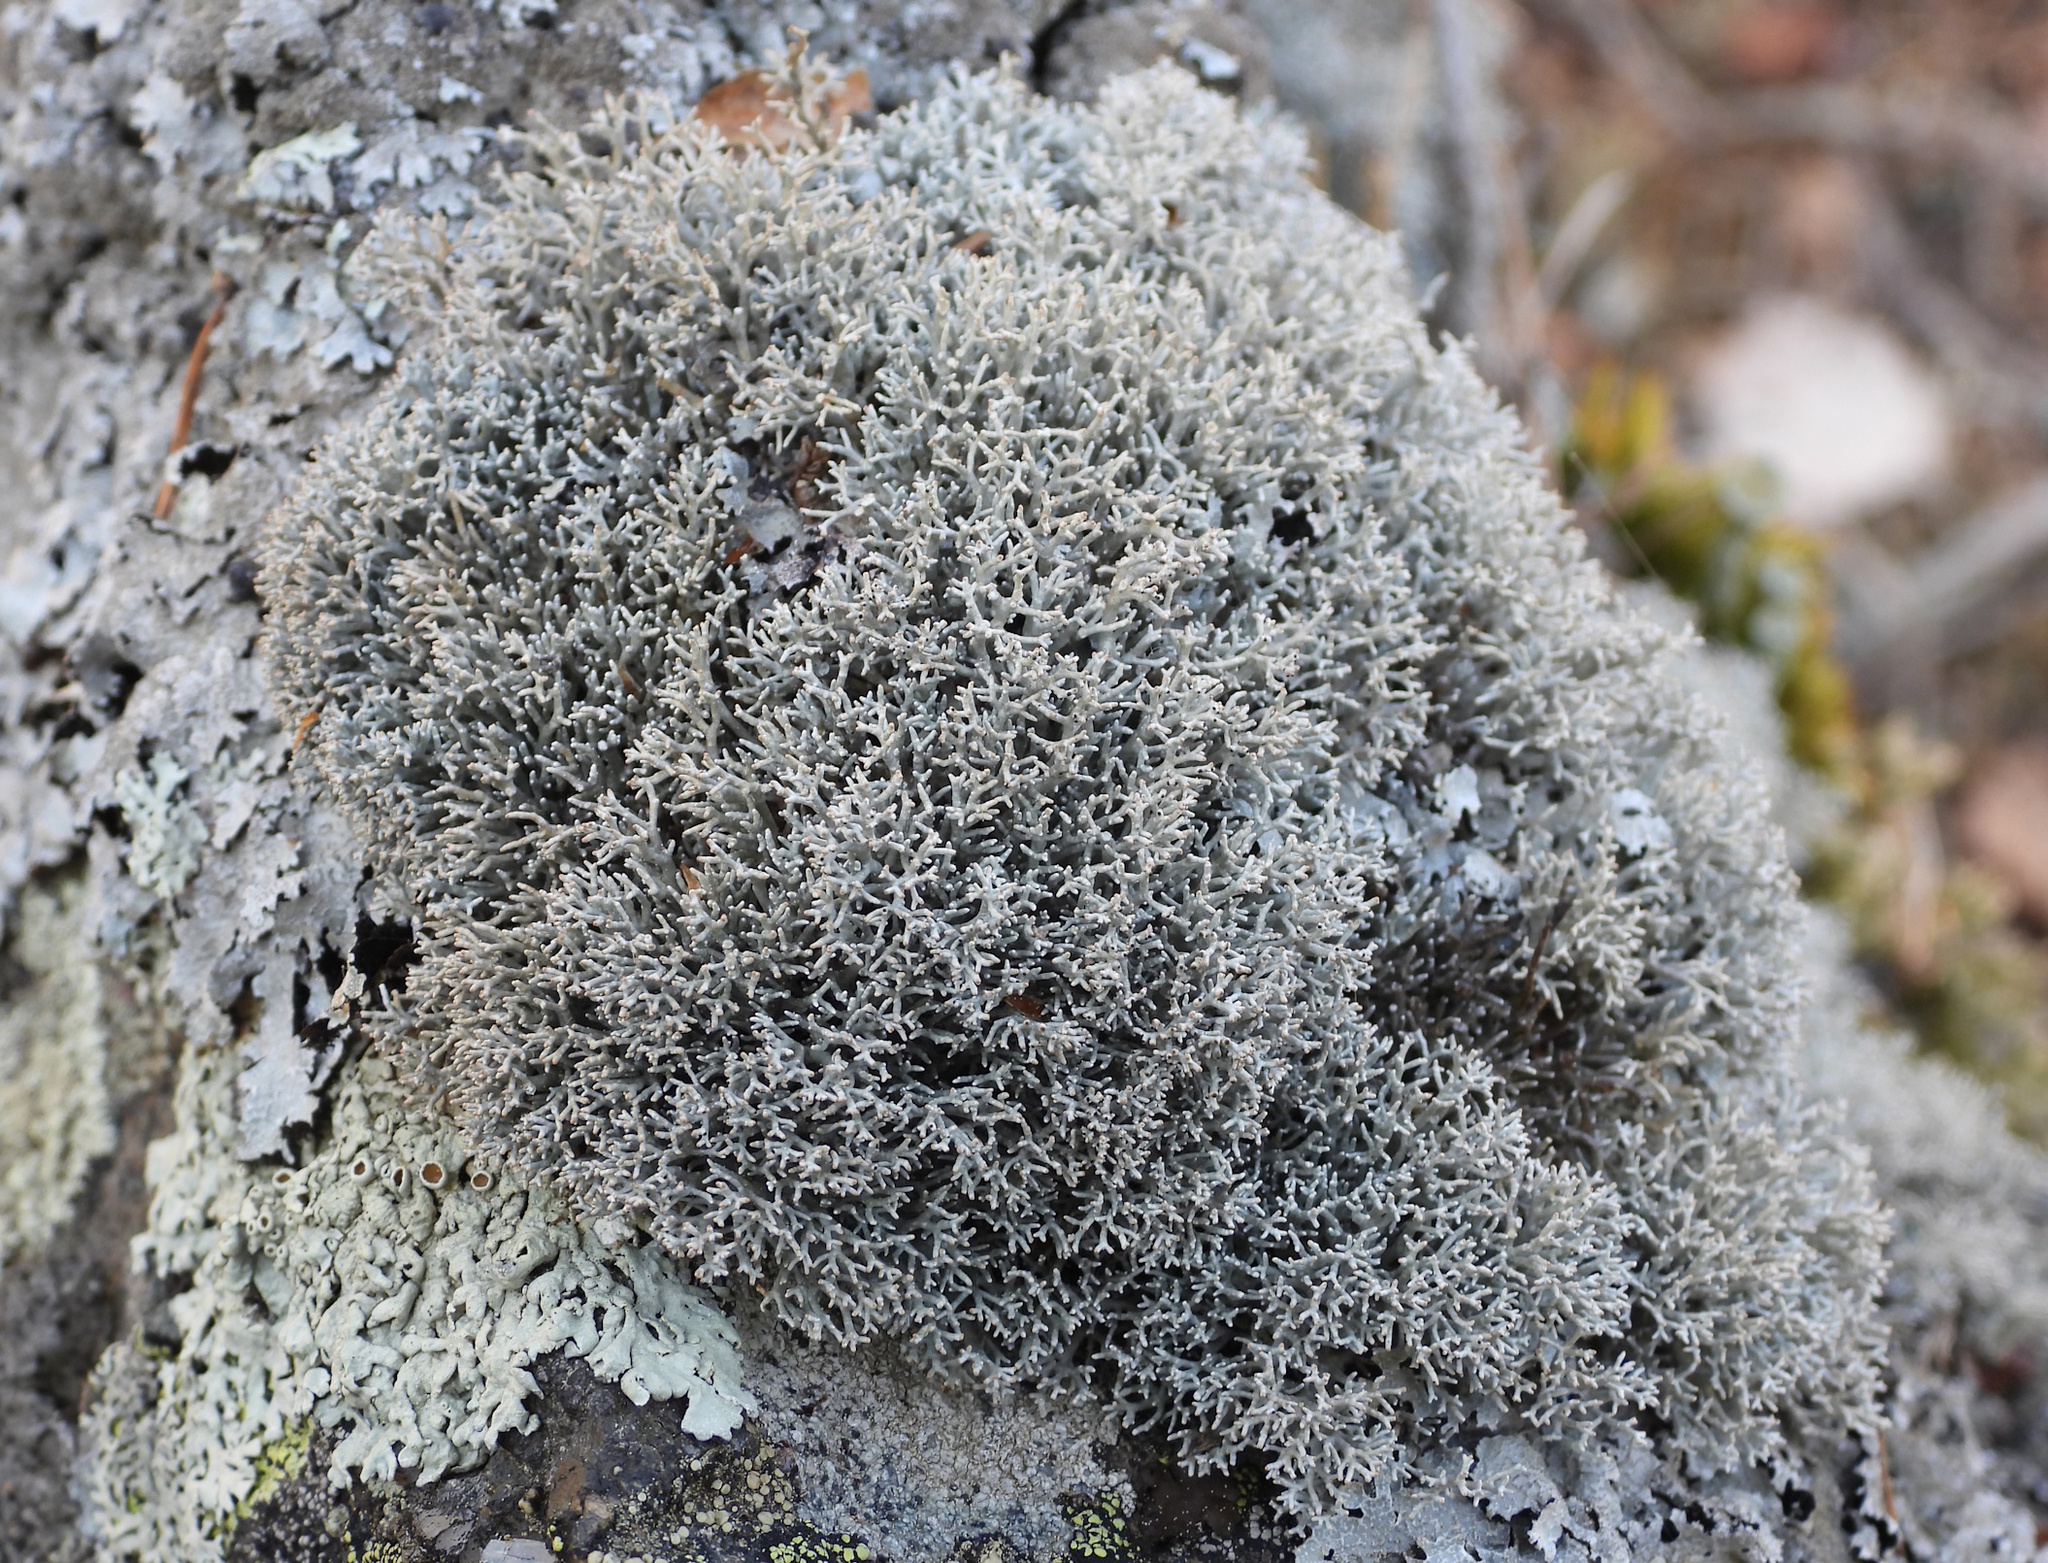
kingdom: Fungi
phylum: Ascomycota
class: Lecanoromycetes
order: Lecanorales
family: Sphaerophoraceae
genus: Sphaerophorus
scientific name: Sphaerophorus fragilis
